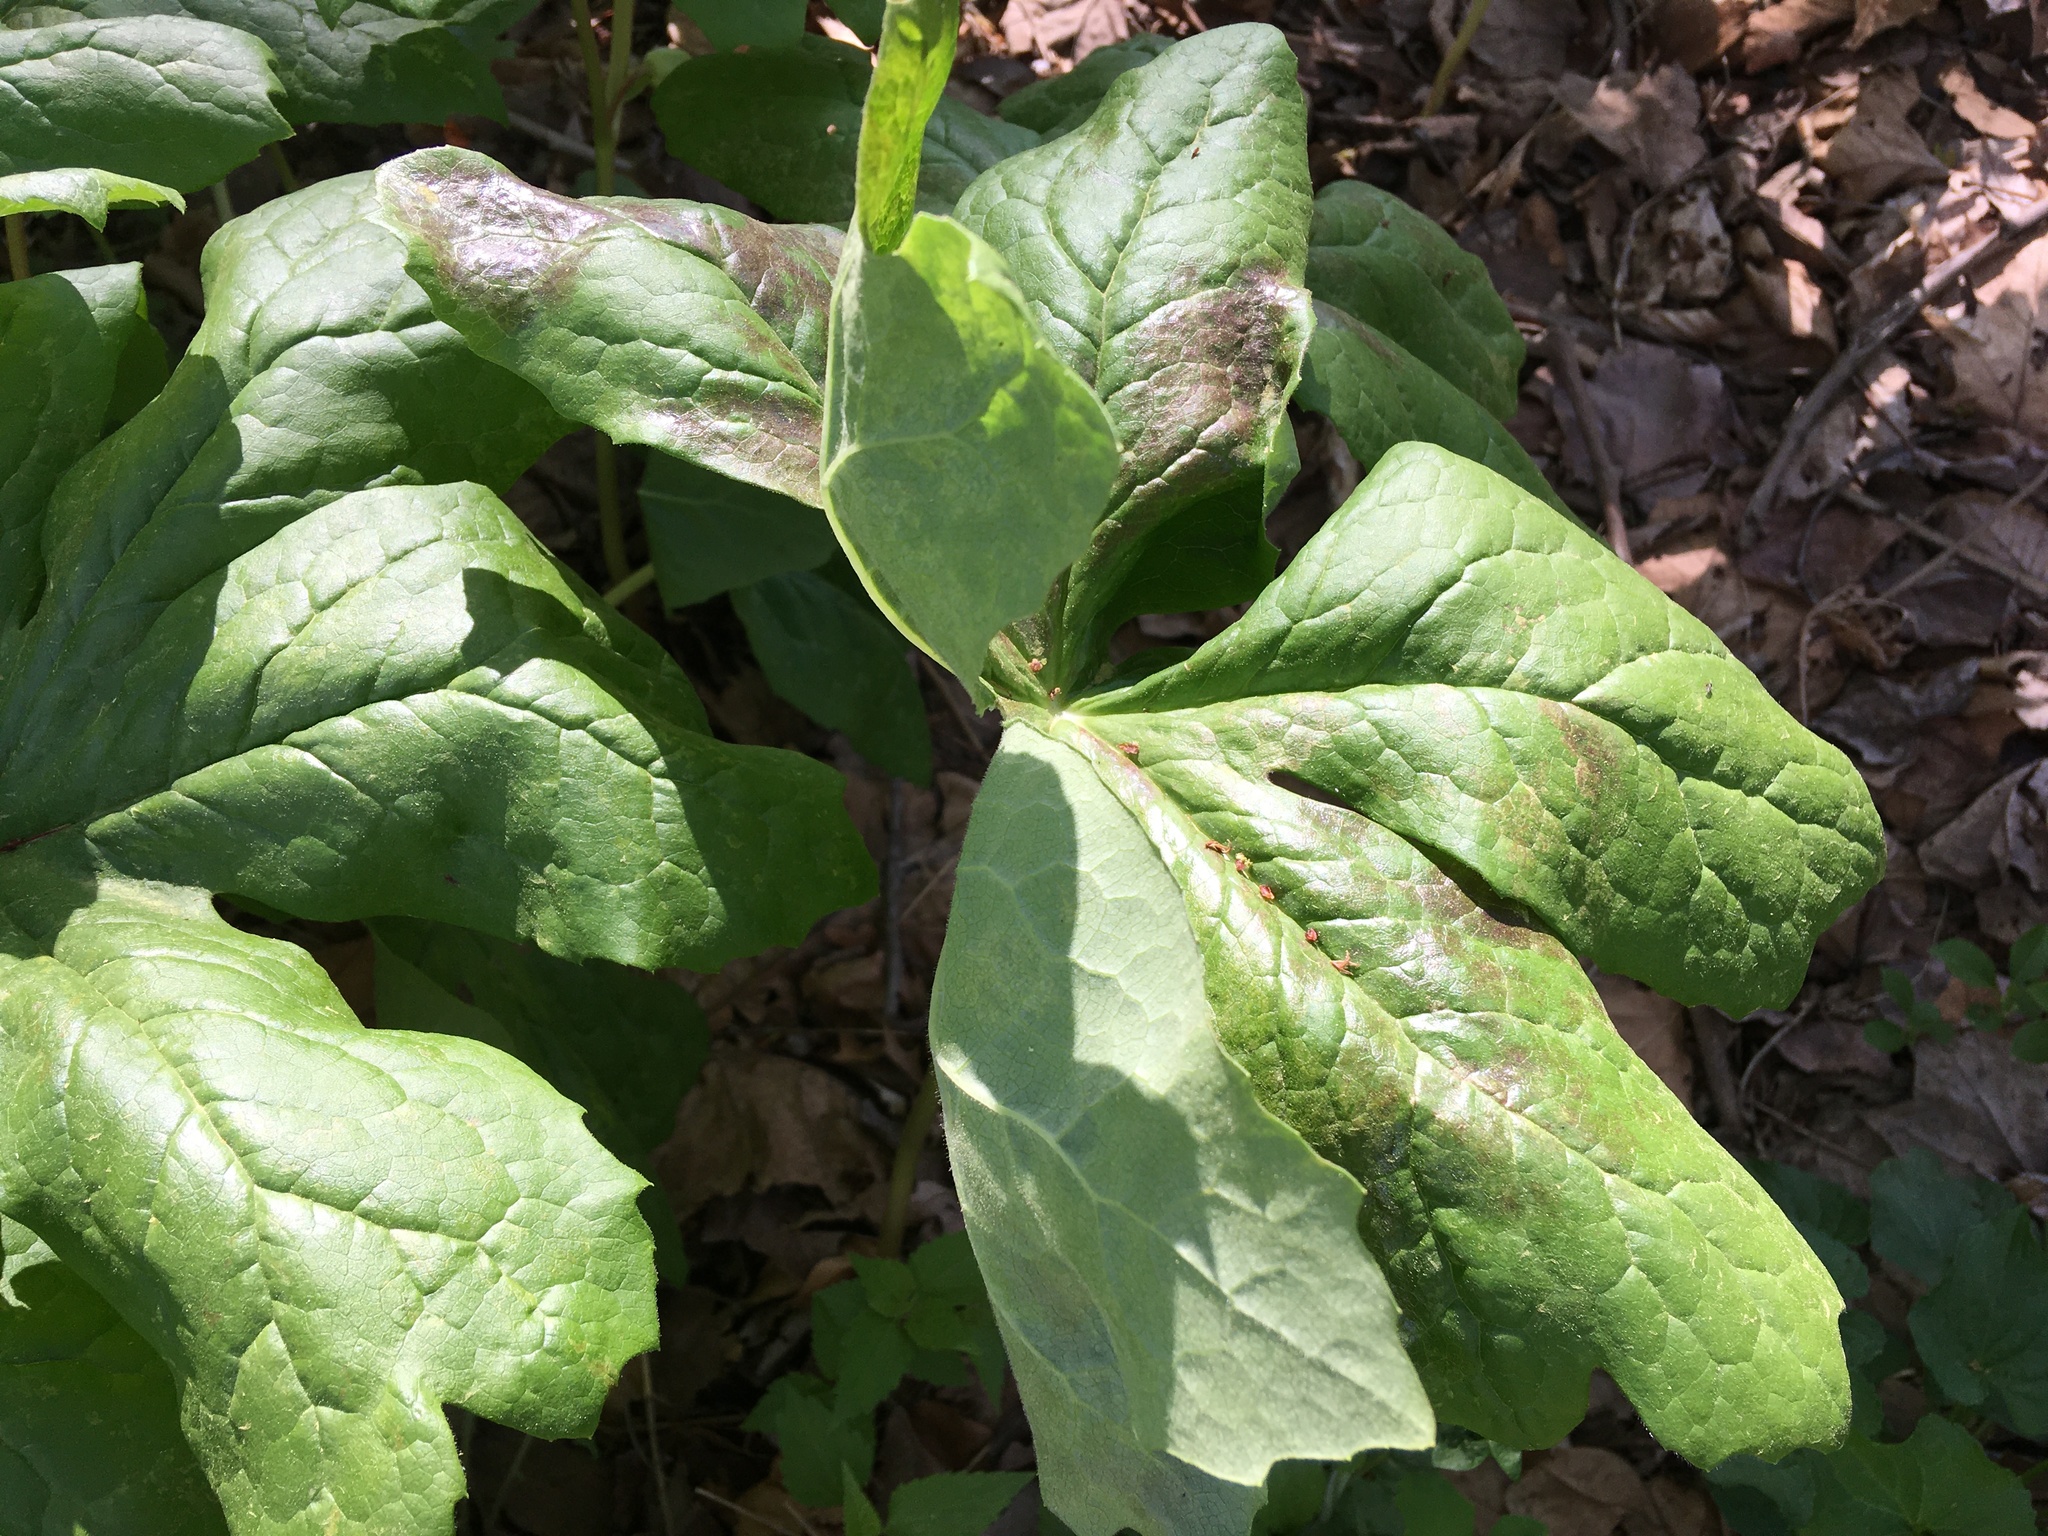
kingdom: Plantae
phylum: Tracheophyta
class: Magnoliopsida
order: Ranunculales
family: Berberidaceae
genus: Podophyllum
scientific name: Podophyllum peltatum
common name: Wild mandrake
